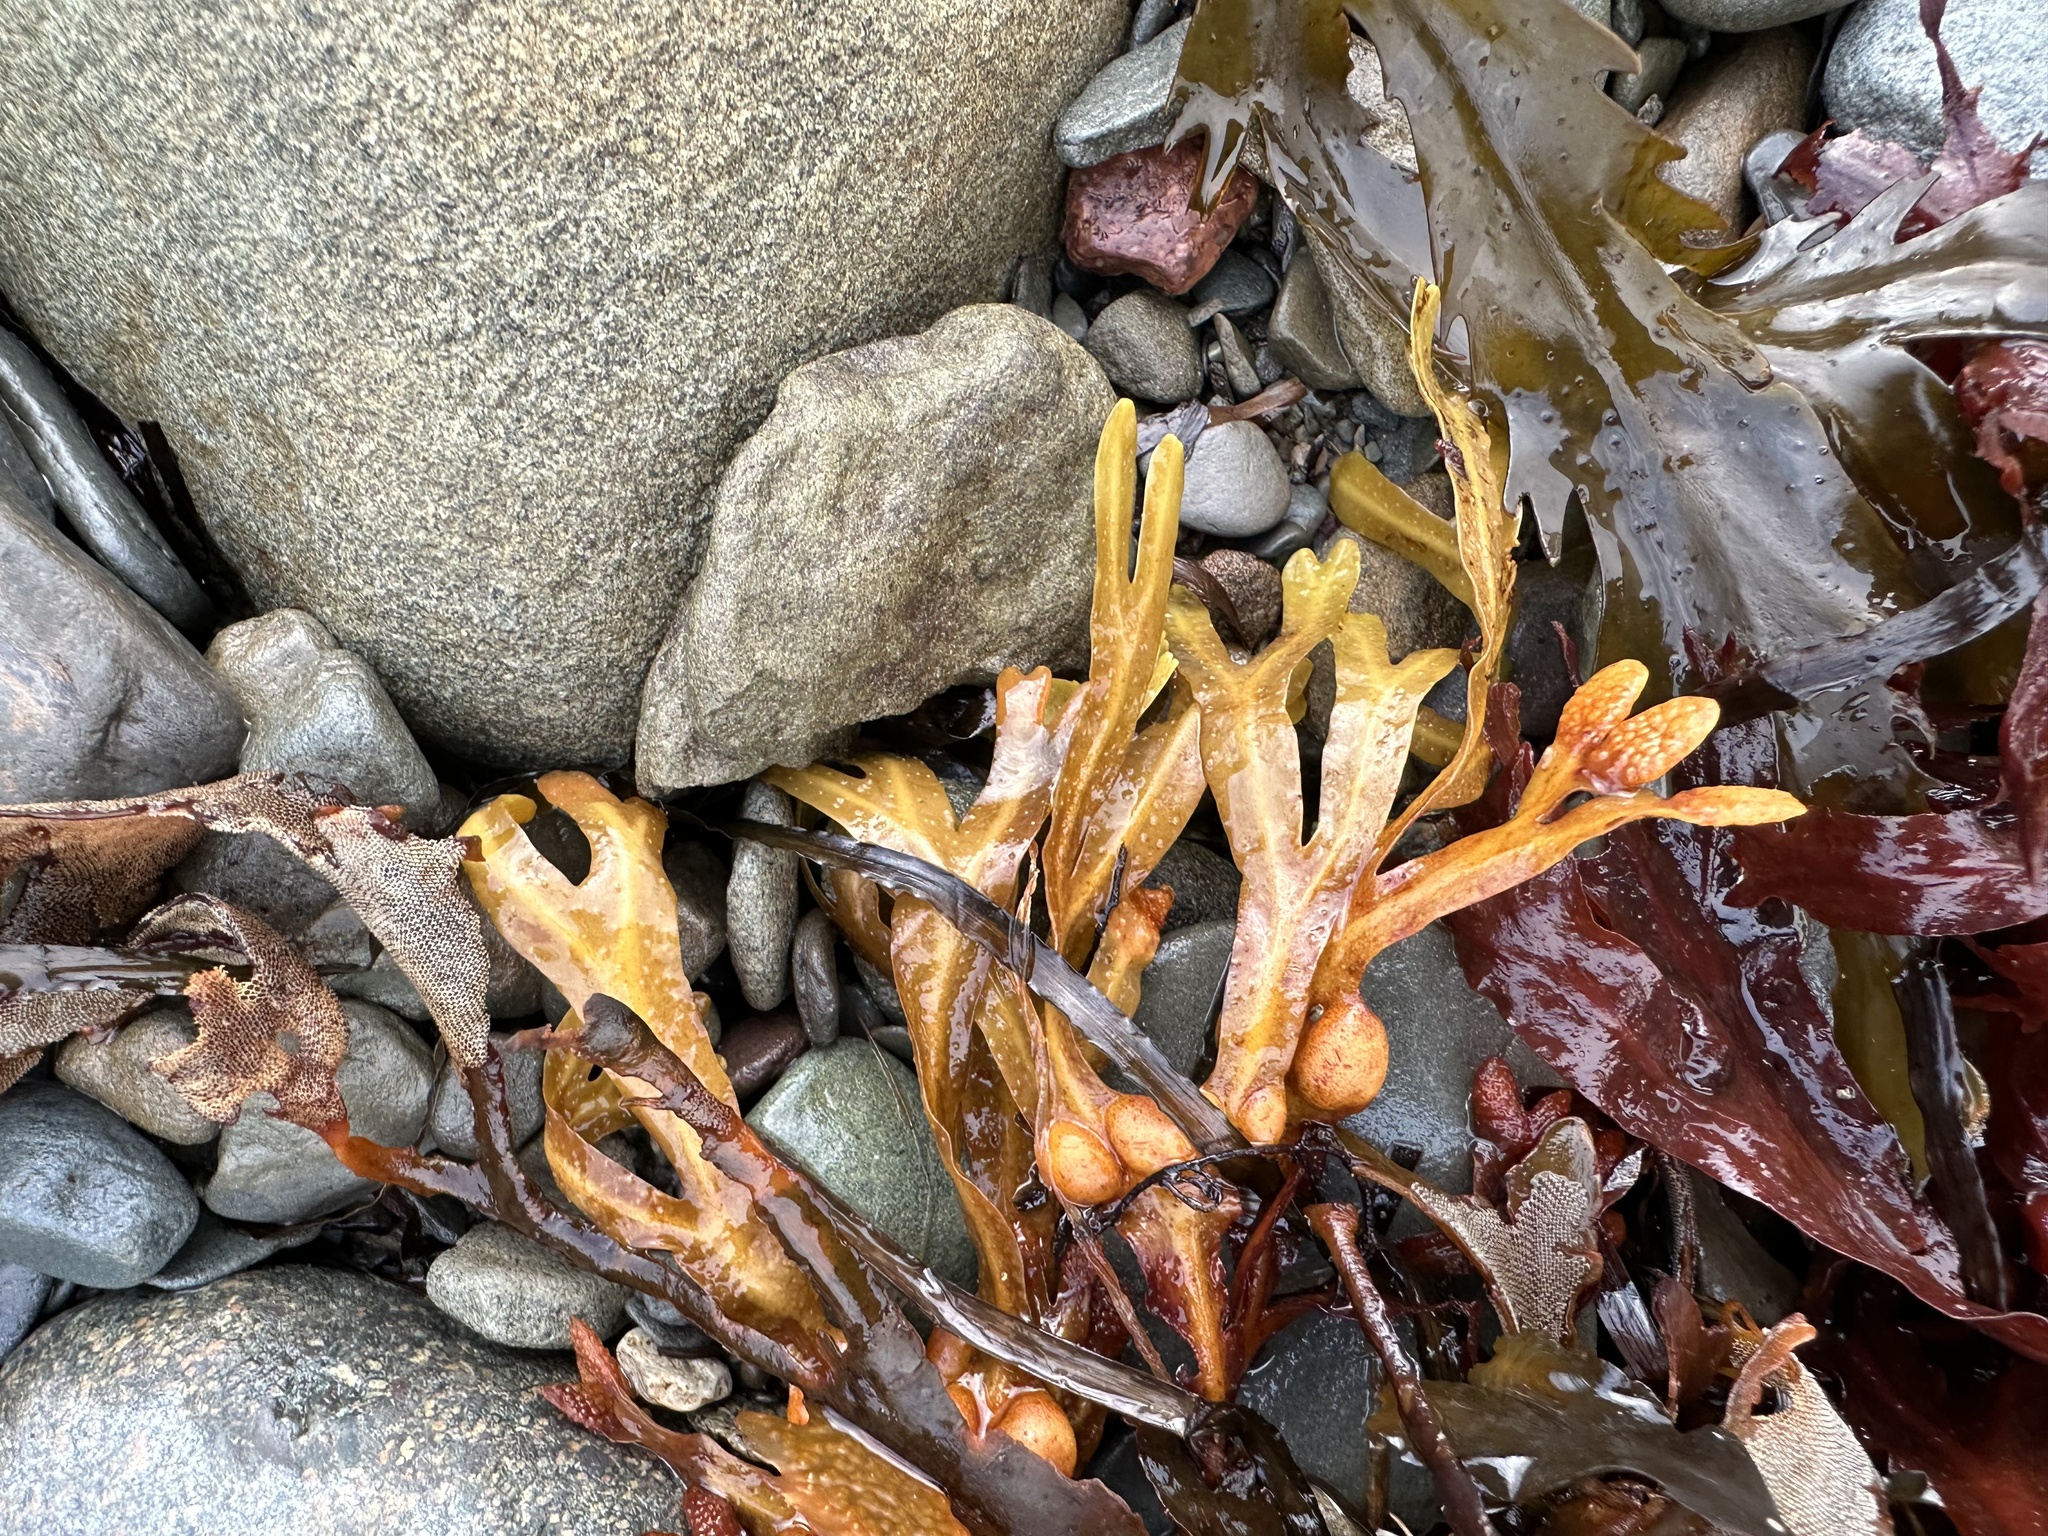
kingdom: Chromista
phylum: Ochrophyta
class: Phaeophyceae
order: Fucales
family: Fucaceae
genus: Fucus
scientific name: Fucus distichus
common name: Rockweed
